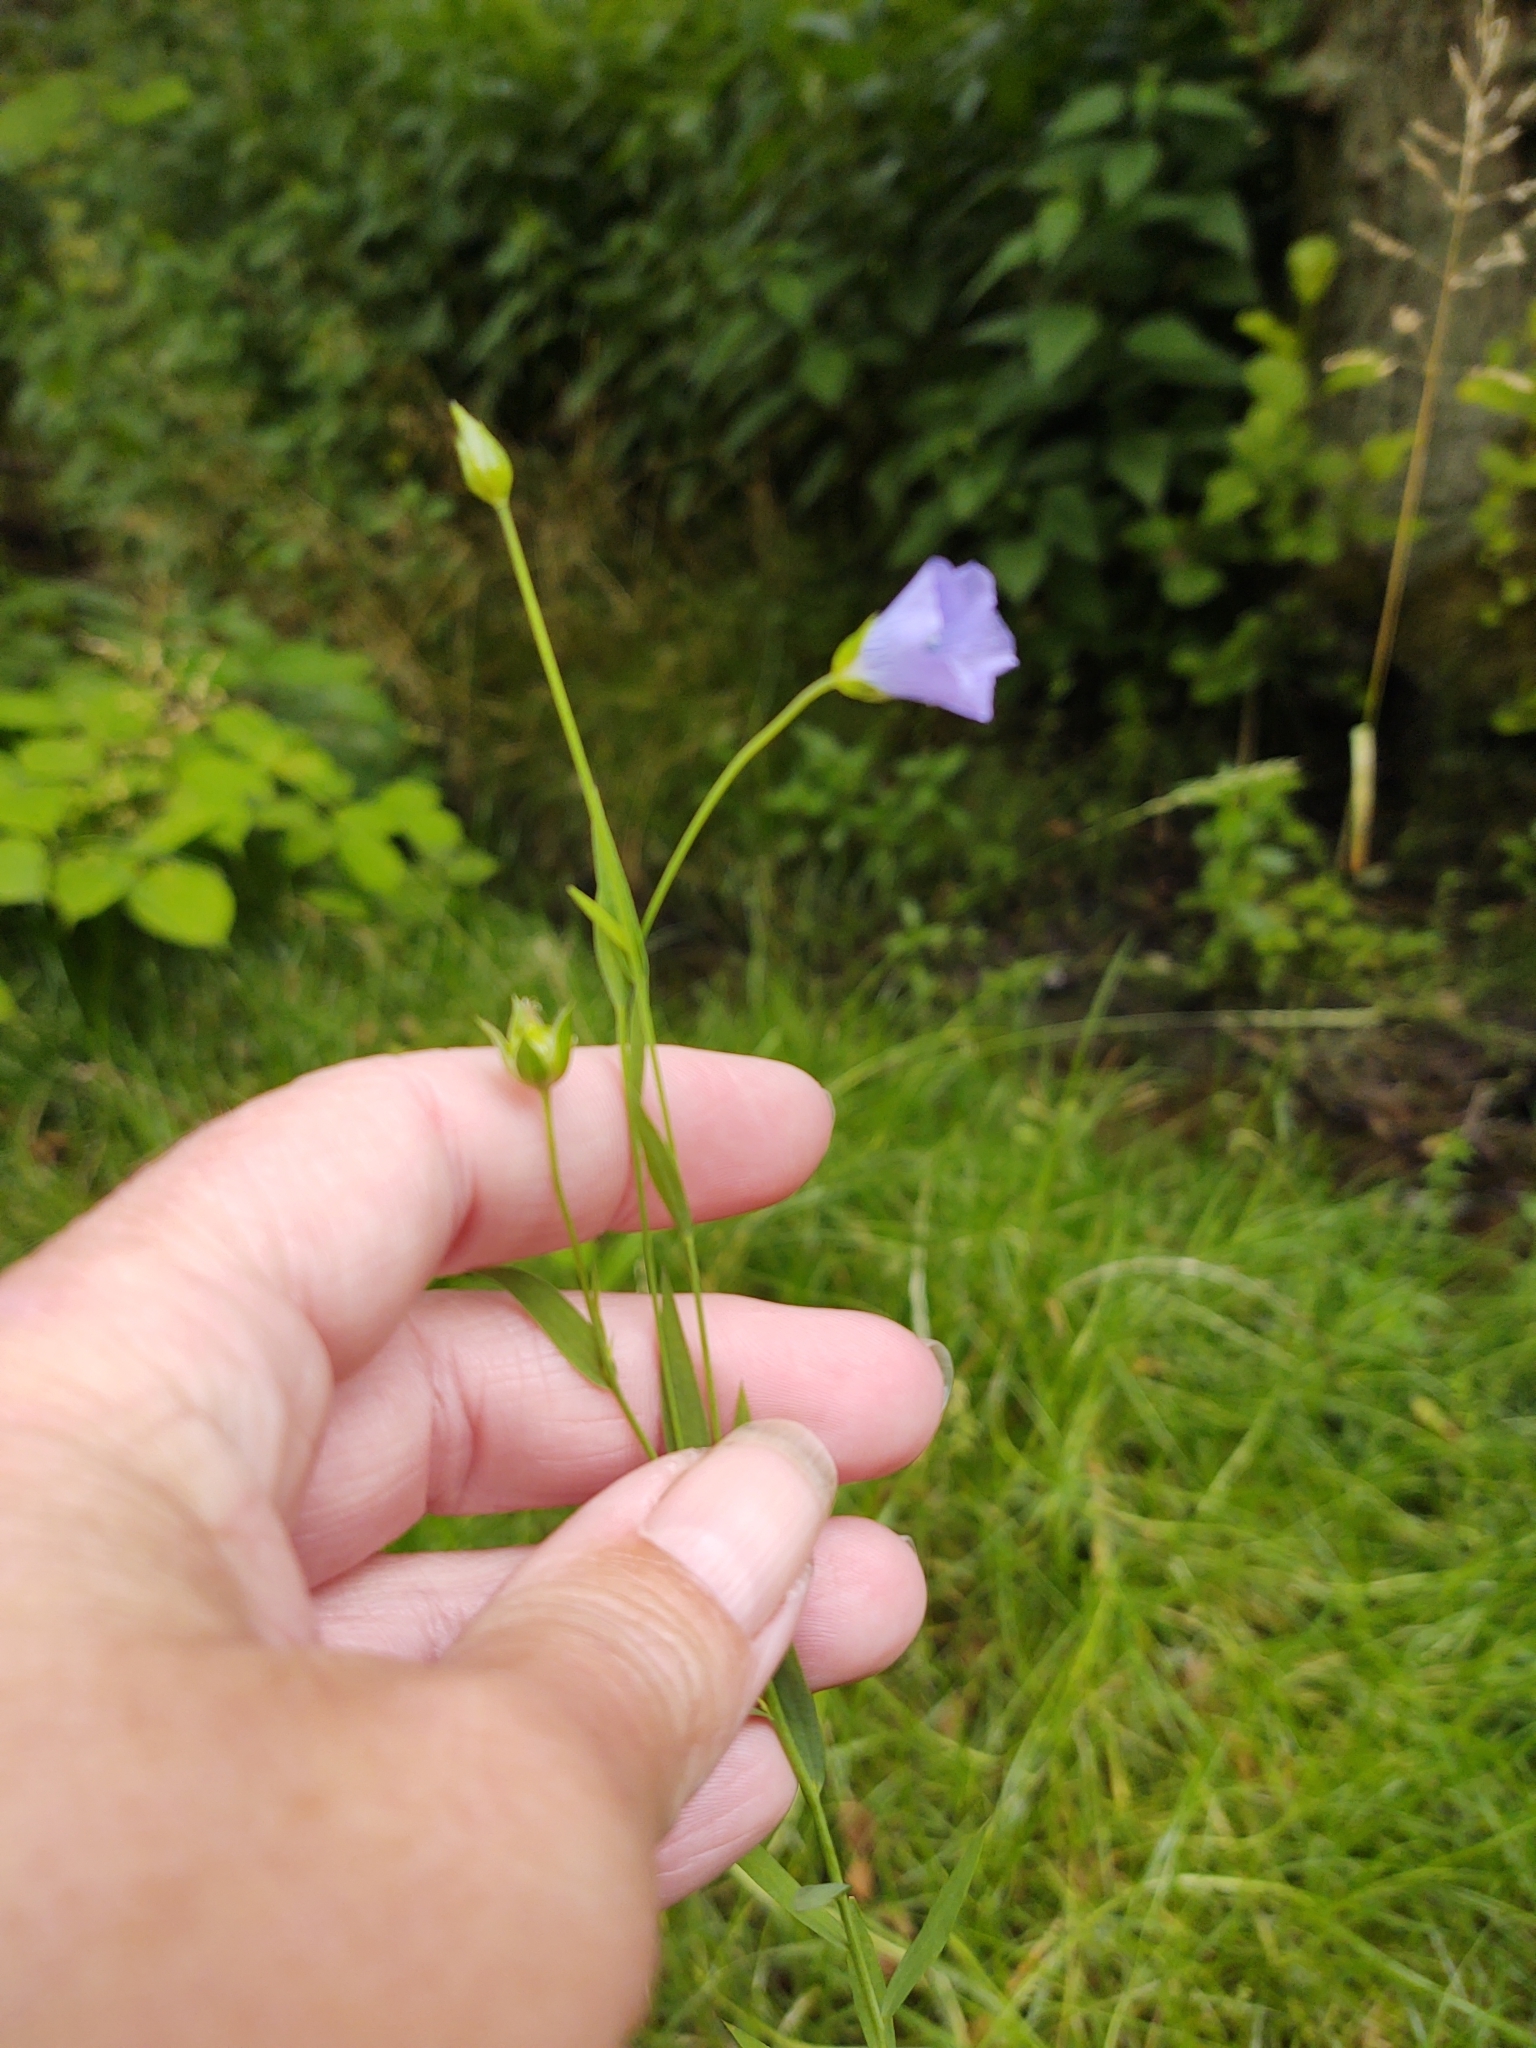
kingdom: Plantae
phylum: Tracheophyta
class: Magnoliopsida
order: Malpighiales
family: Linaceae
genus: Linum
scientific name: Linum usitatissimum
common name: Flax
